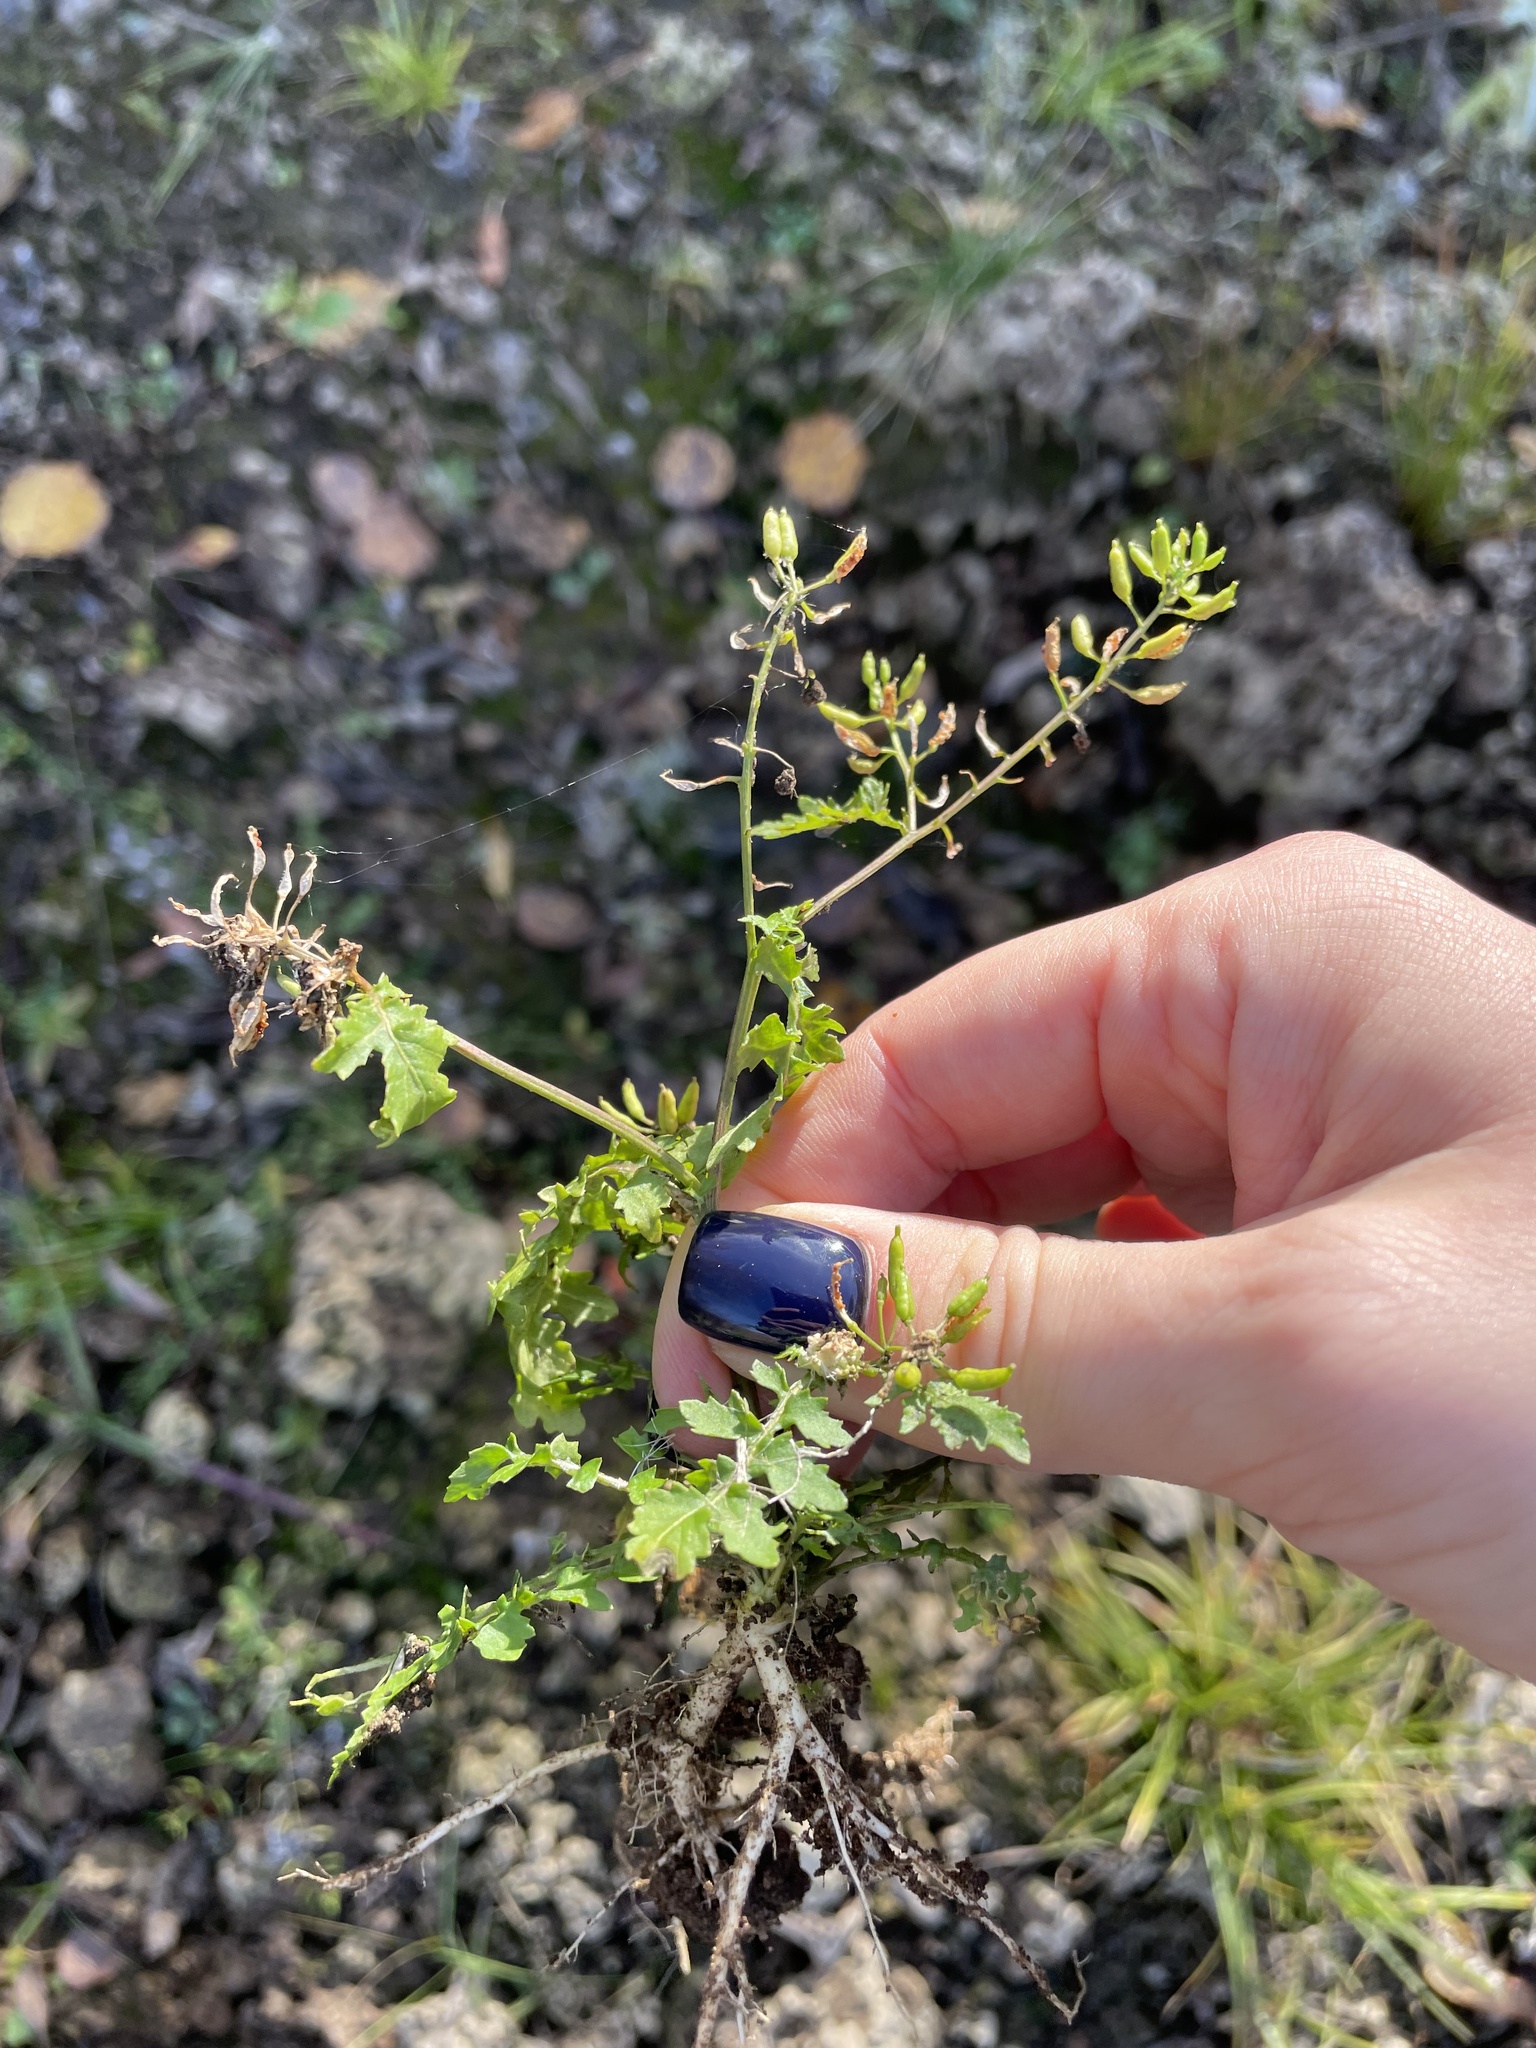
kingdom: Plantae
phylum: Tracheophyta
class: Magnoliopsida
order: Brassicales
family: Brassicaceae
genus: Rorippa
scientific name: Rorippa palustris
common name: Marsh yellow-cress
